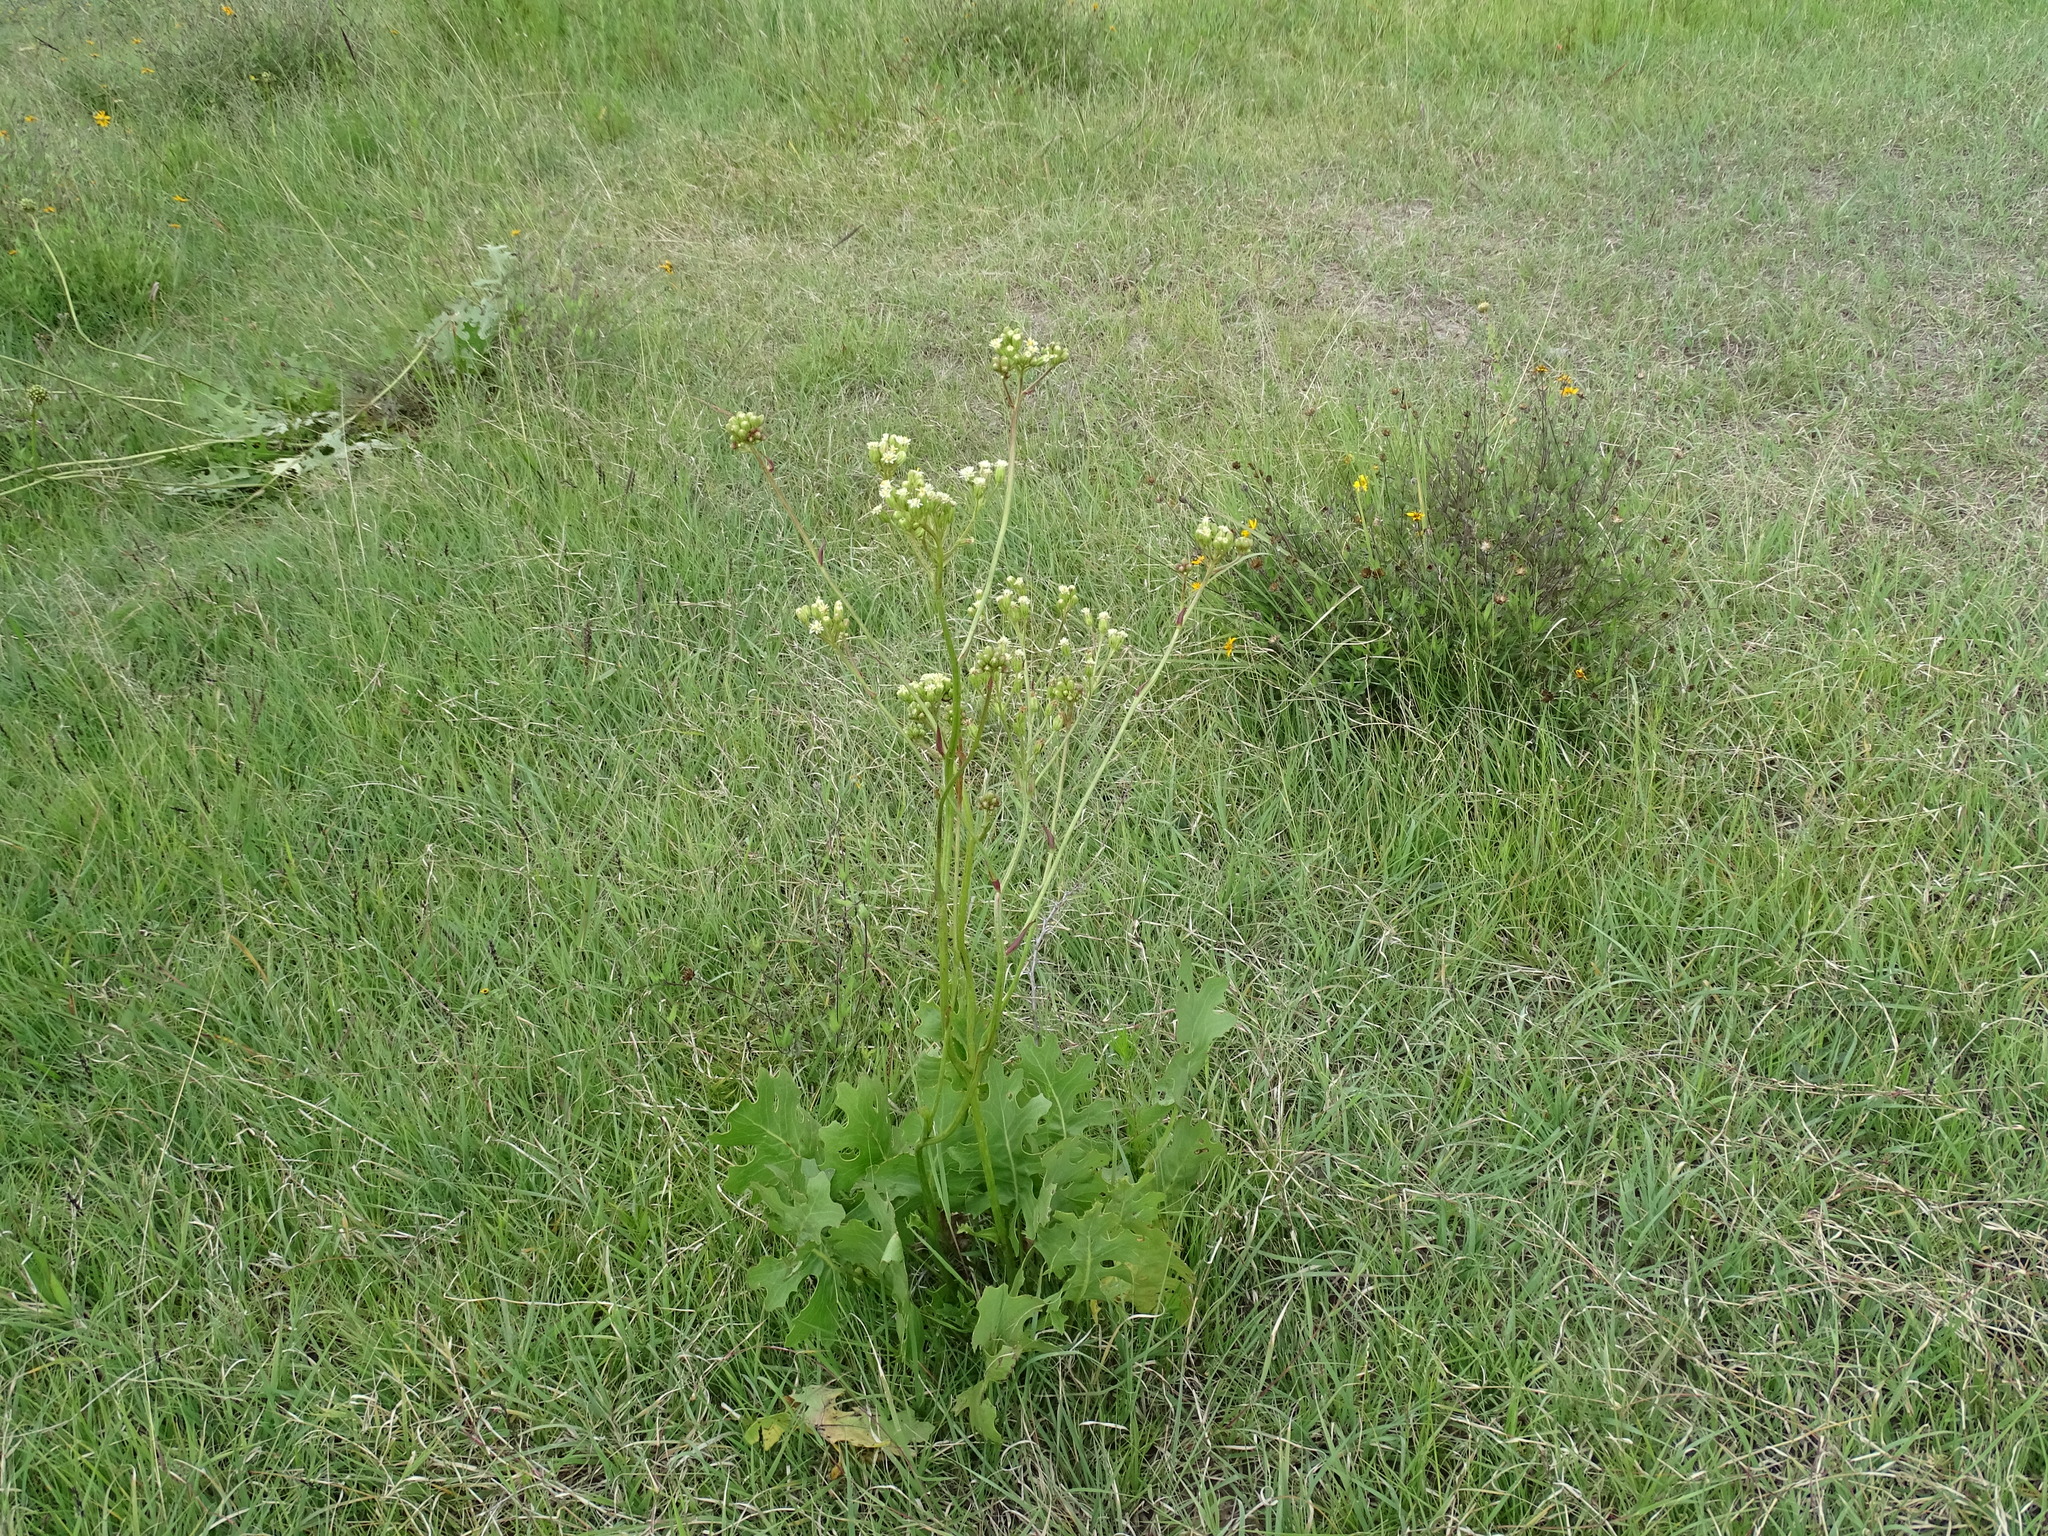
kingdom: Plantae
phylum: Tracheophyta
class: Magnoliopsida
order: Asterales
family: Asteraceae
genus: Psacalium
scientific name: Psacalium sinuatum
